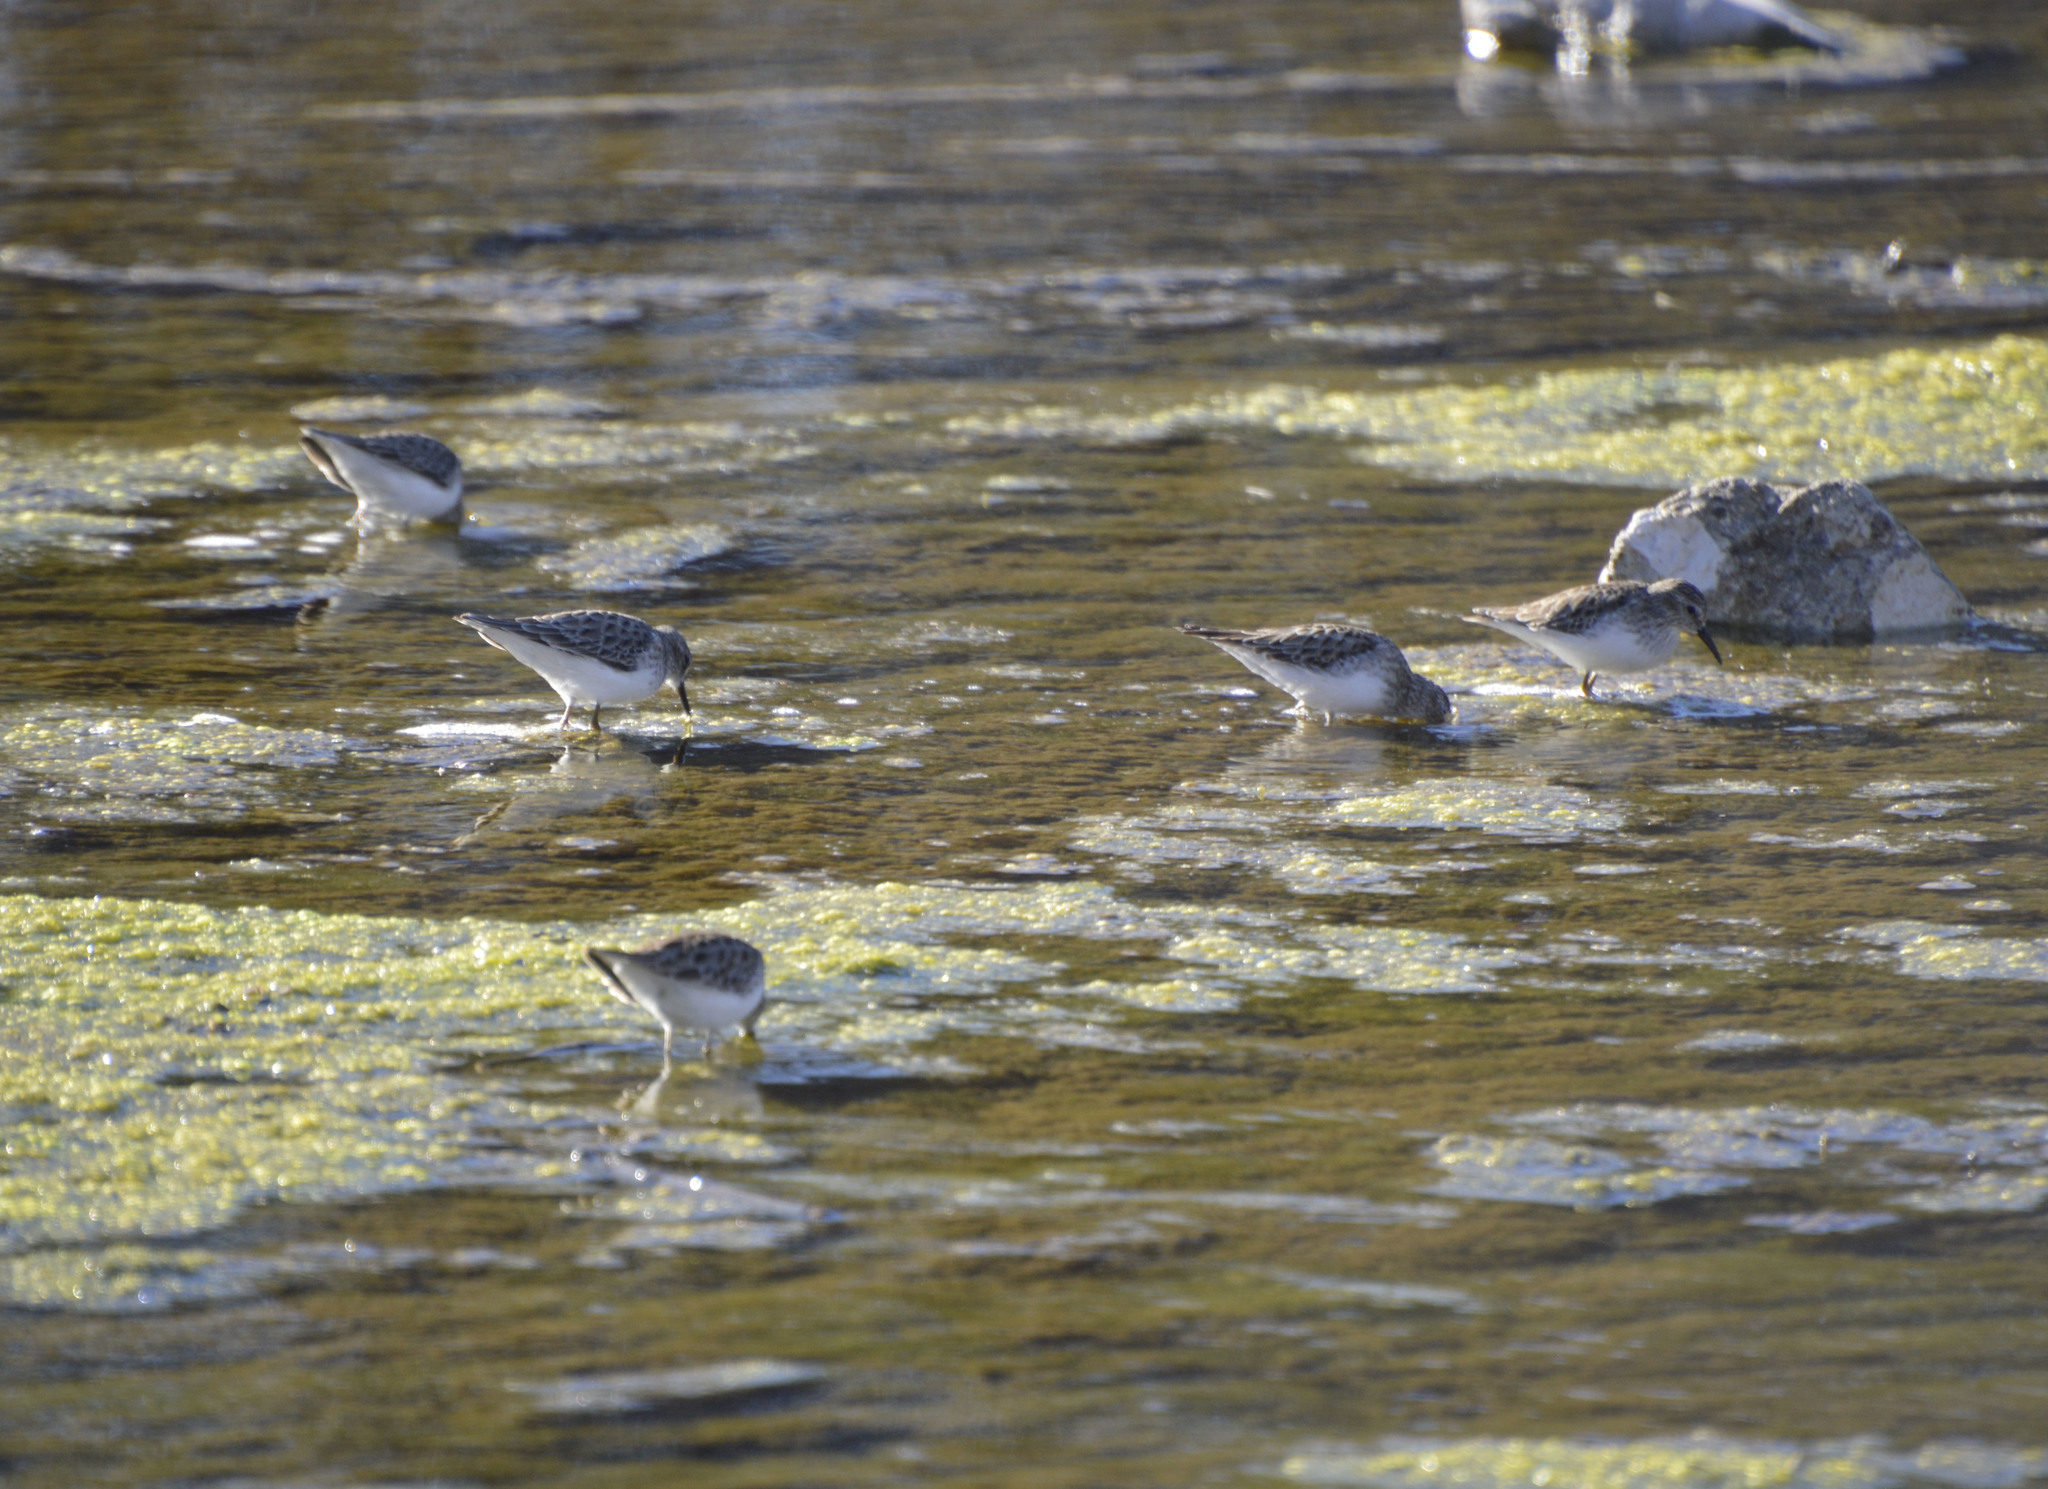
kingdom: Animalia
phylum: Chordata
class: Aves
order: Charadriiformes
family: Scolopacidae
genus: Calidris
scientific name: Calidris minutilla
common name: Least sandpiper
